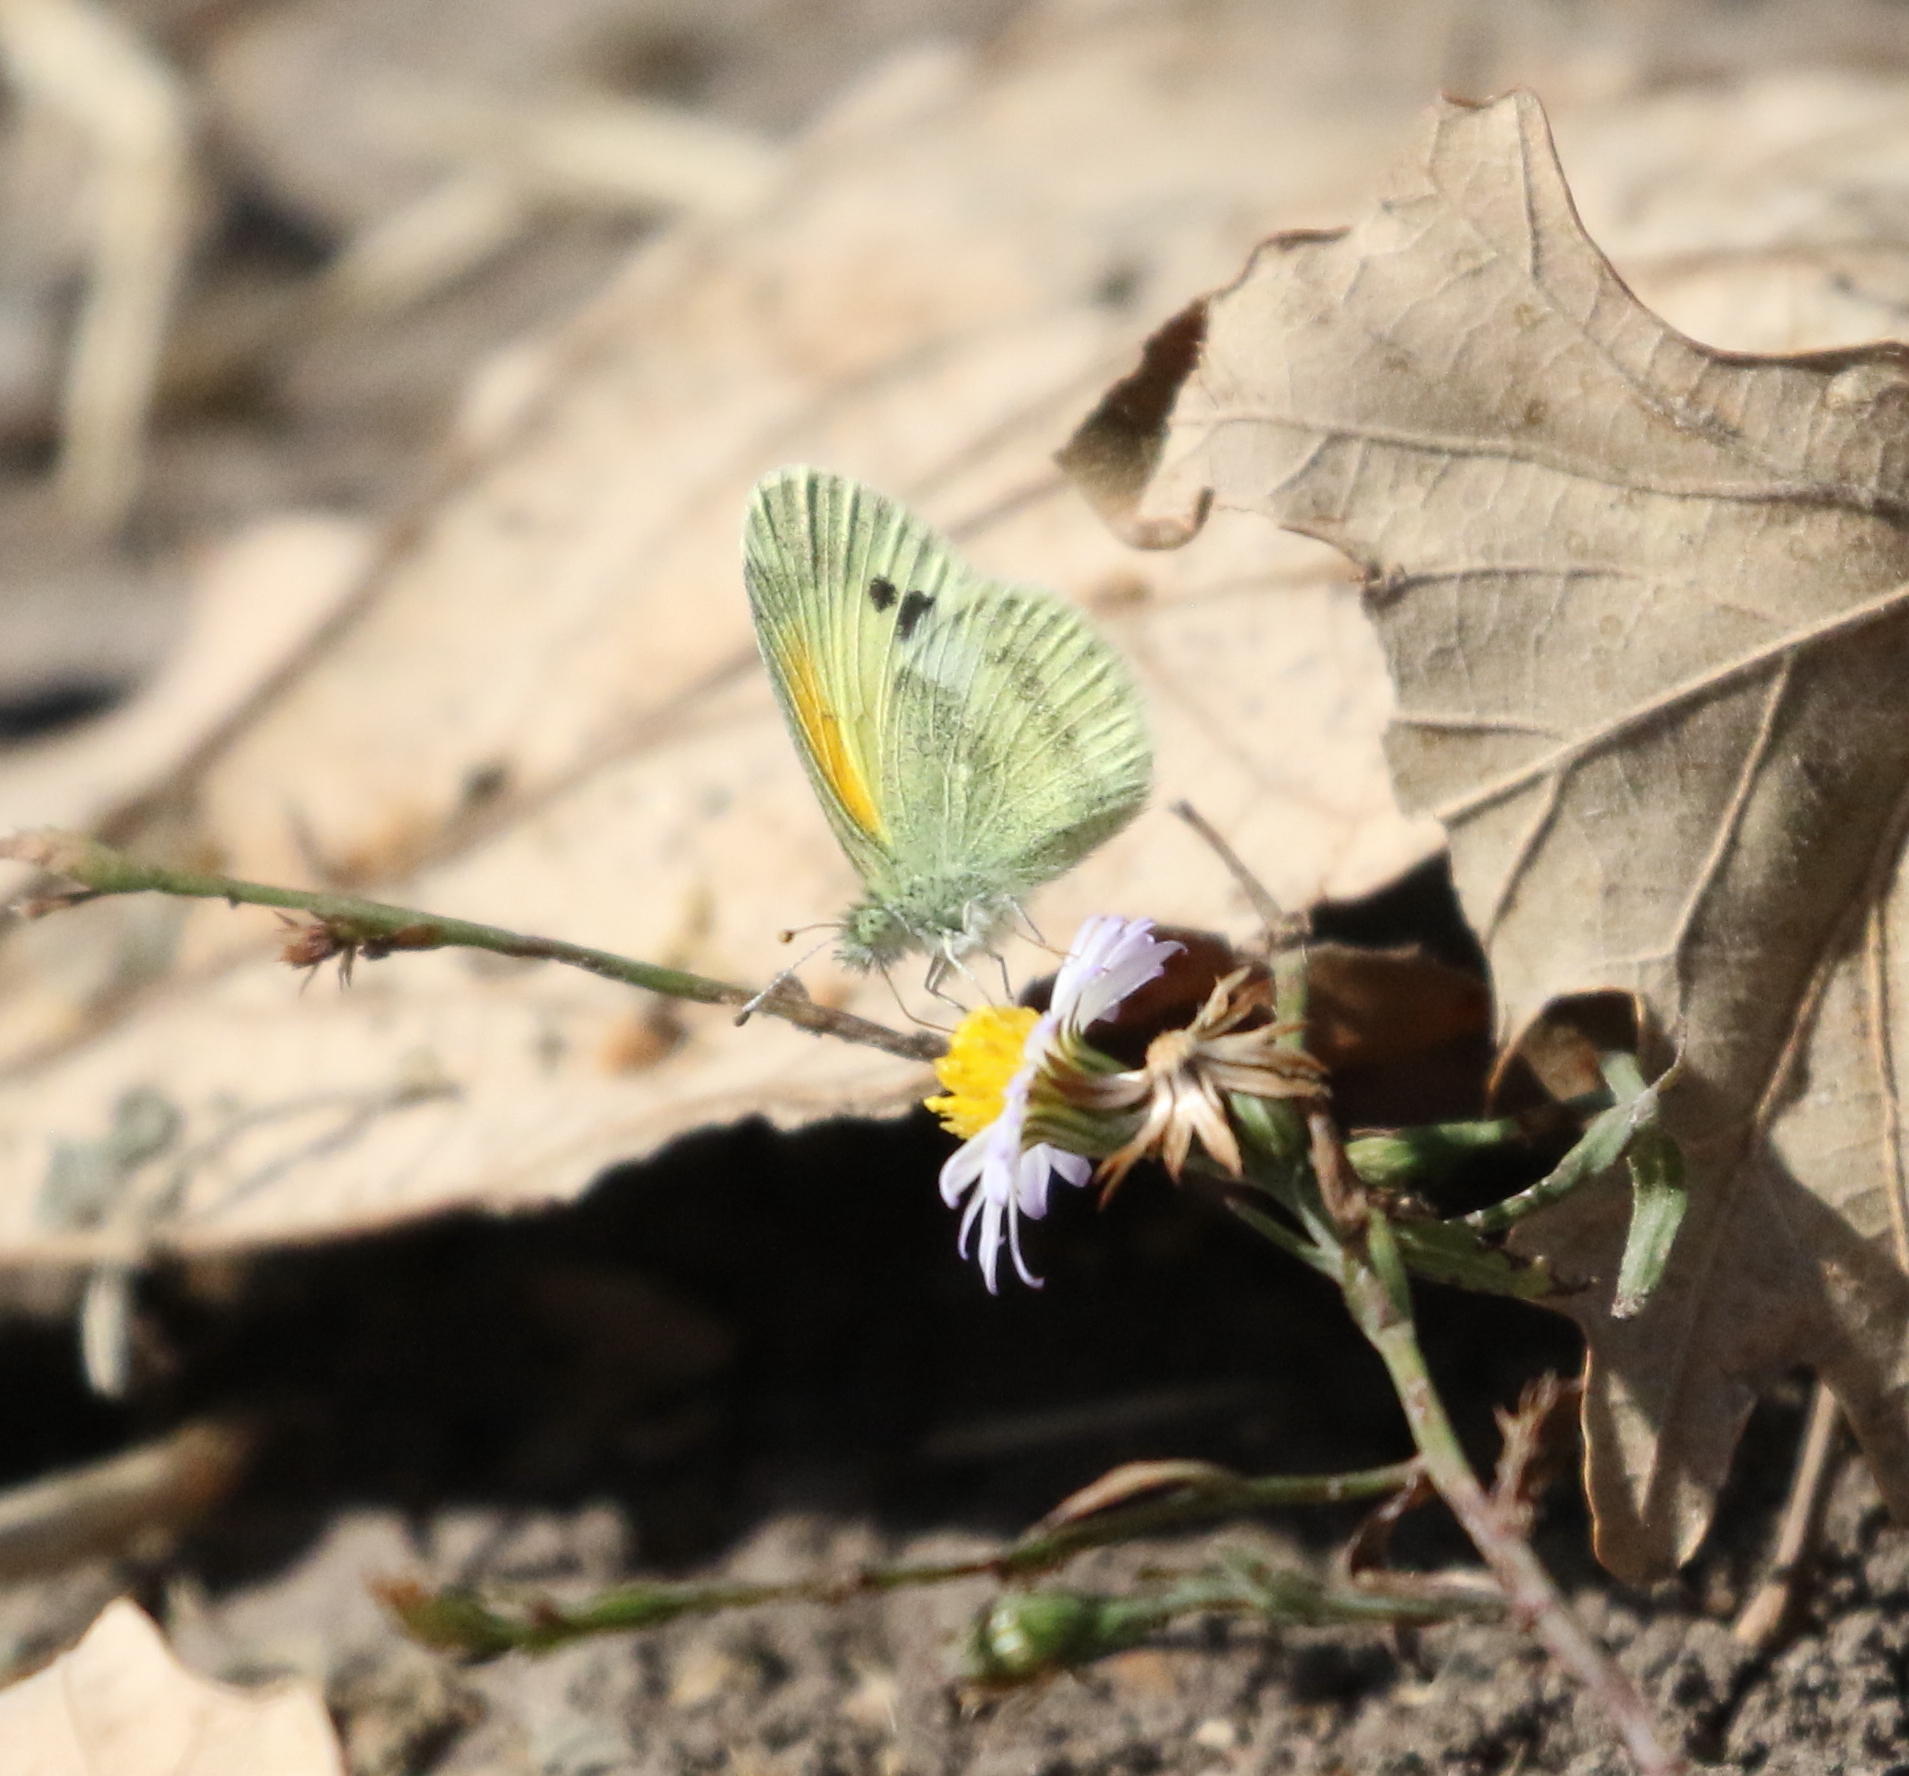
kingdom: Animalia
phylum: Arthropoda
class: Insecta
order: Lepidoptera
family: Pieridae
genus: Nathalis
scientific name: Nathalis iole
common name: Dainty sulphur
